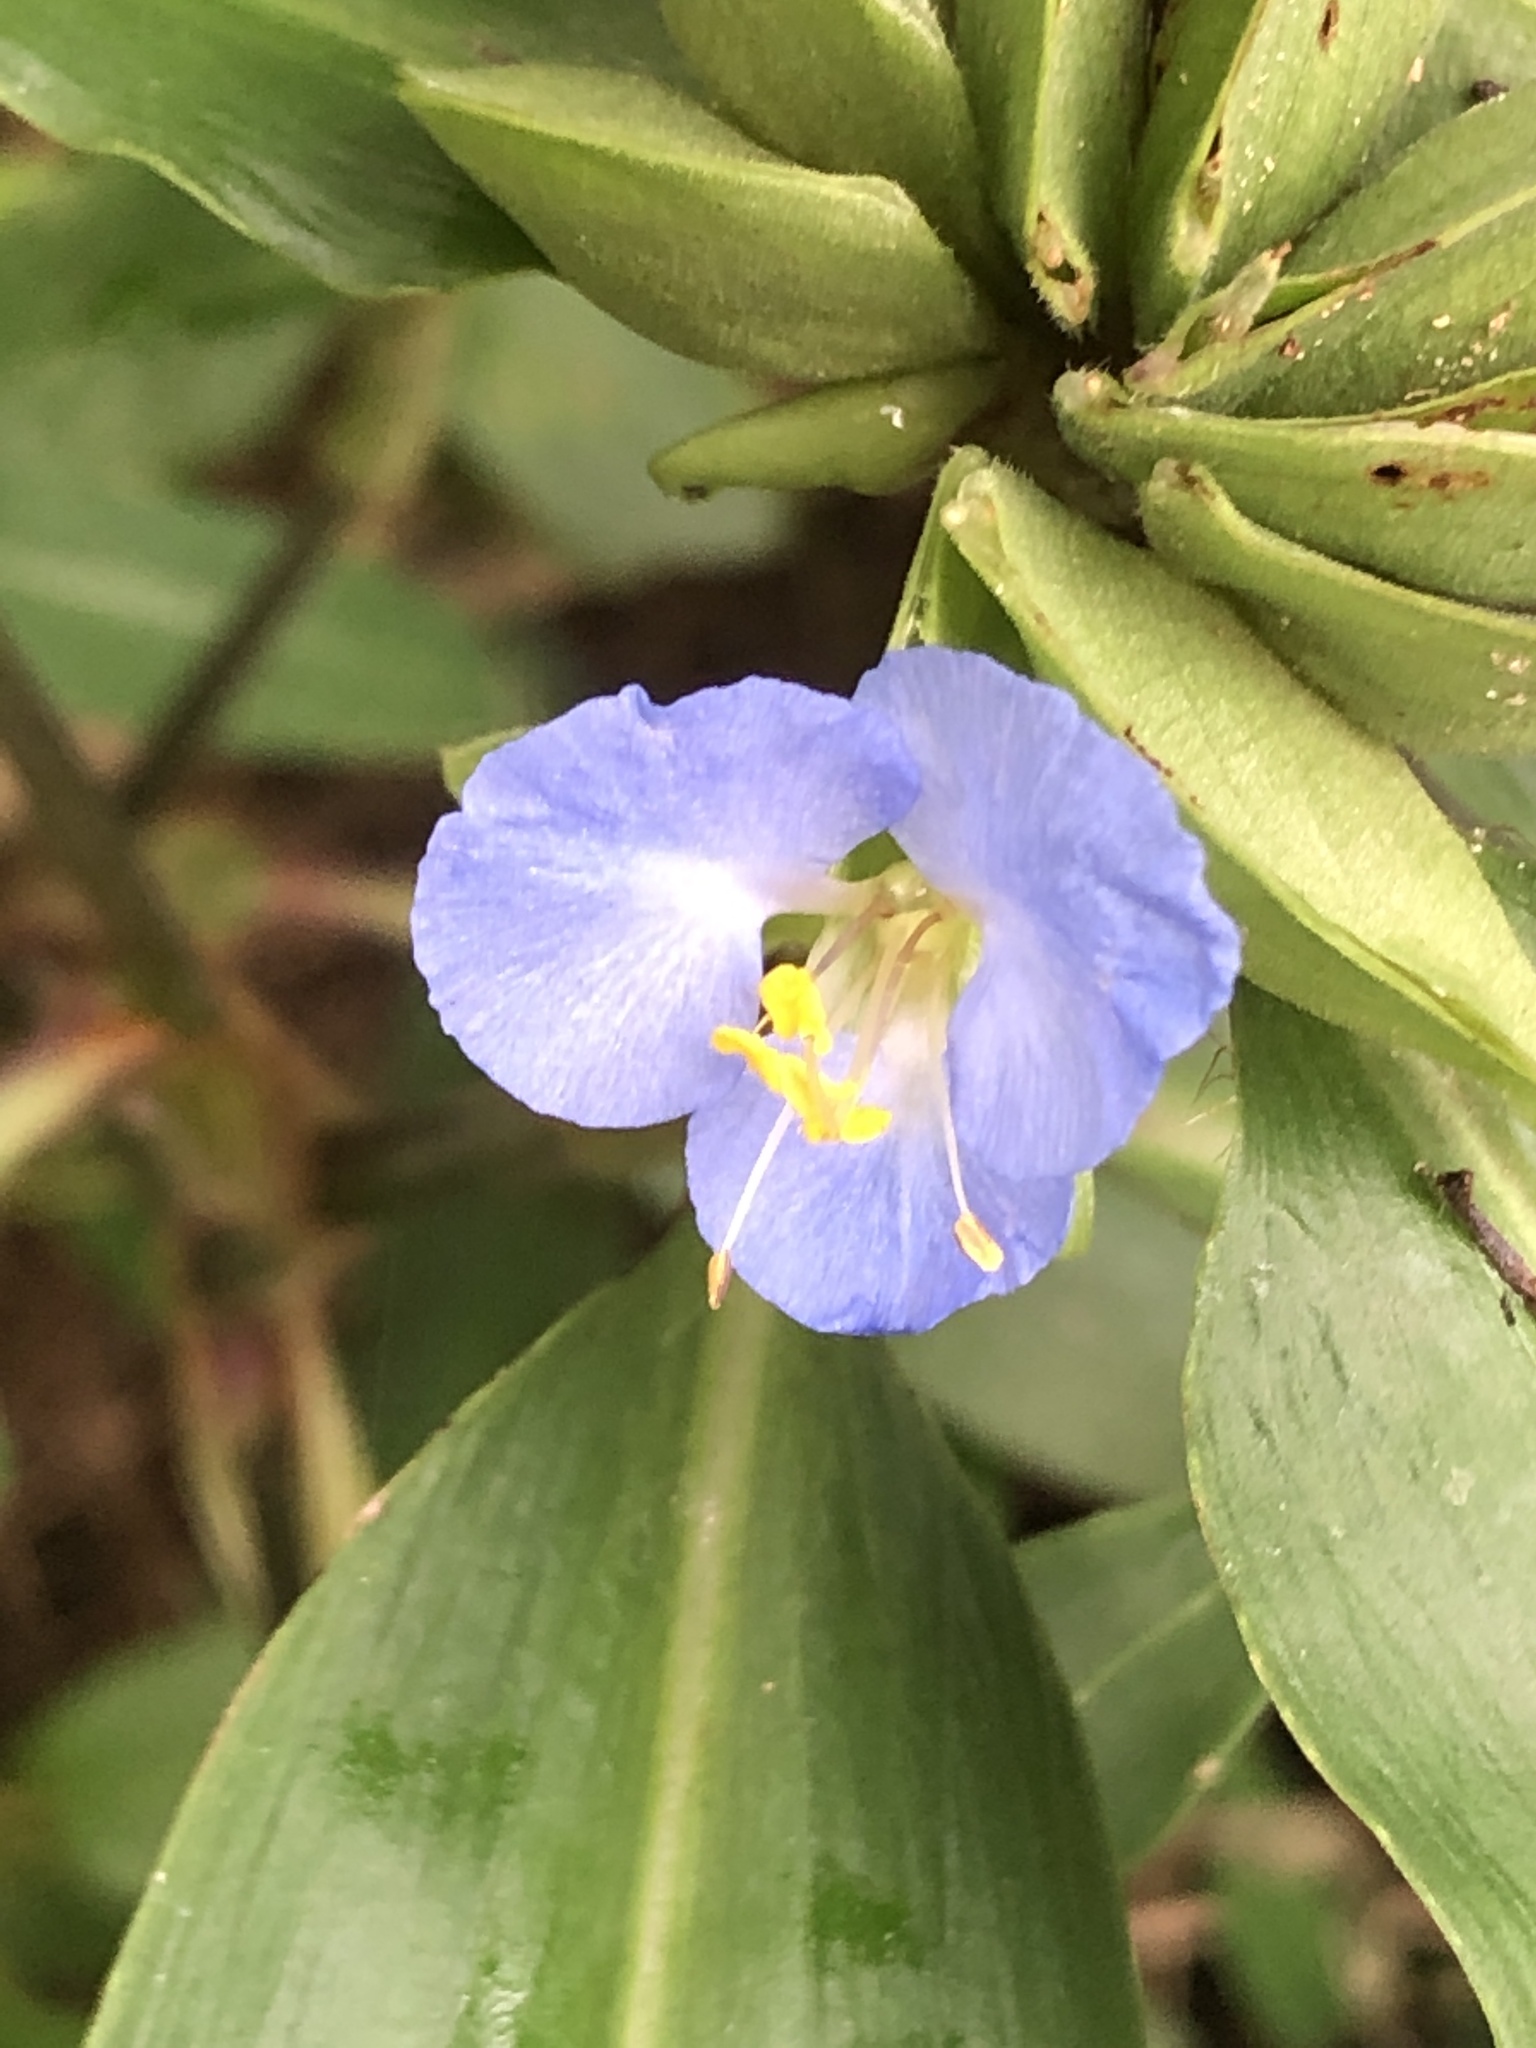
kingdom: Plantae
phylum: Tracheophyta
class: Liliopsida
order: Commelinales
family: Commelinaceae
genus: Commelina
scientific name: Commelina virginica
